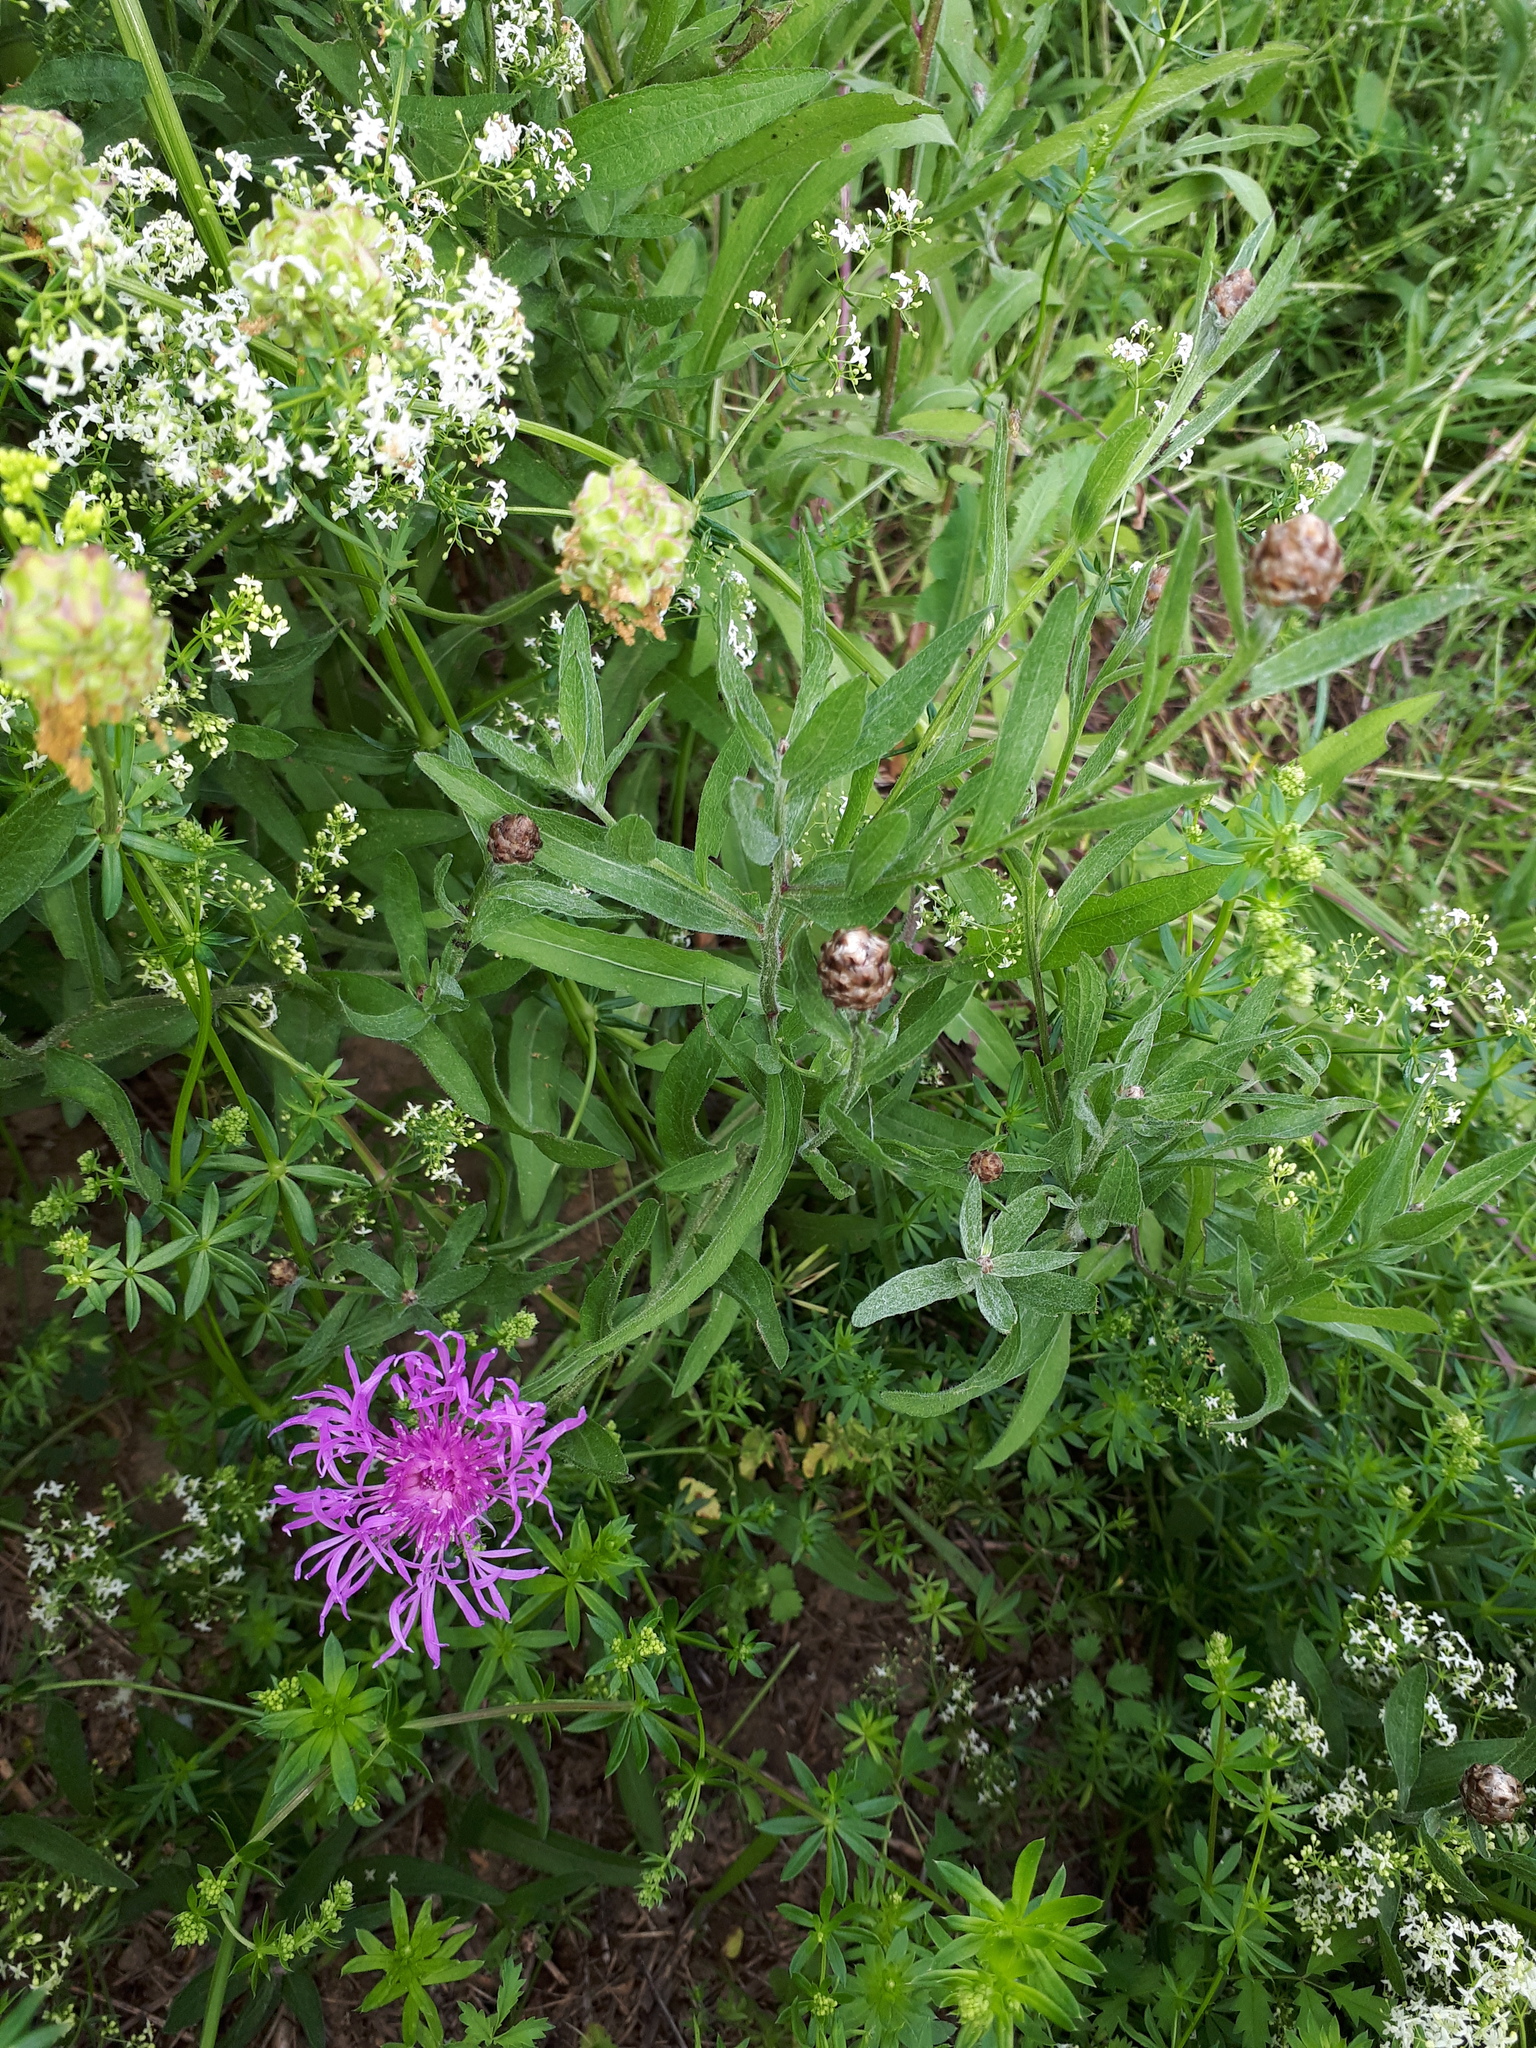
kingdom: Plantae
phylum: Tracheophyta
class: Magnoliopsida
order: Asterales
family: Asteraceae
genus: Centaurea
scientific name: Centaurea jacea
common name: Brown knapweed
